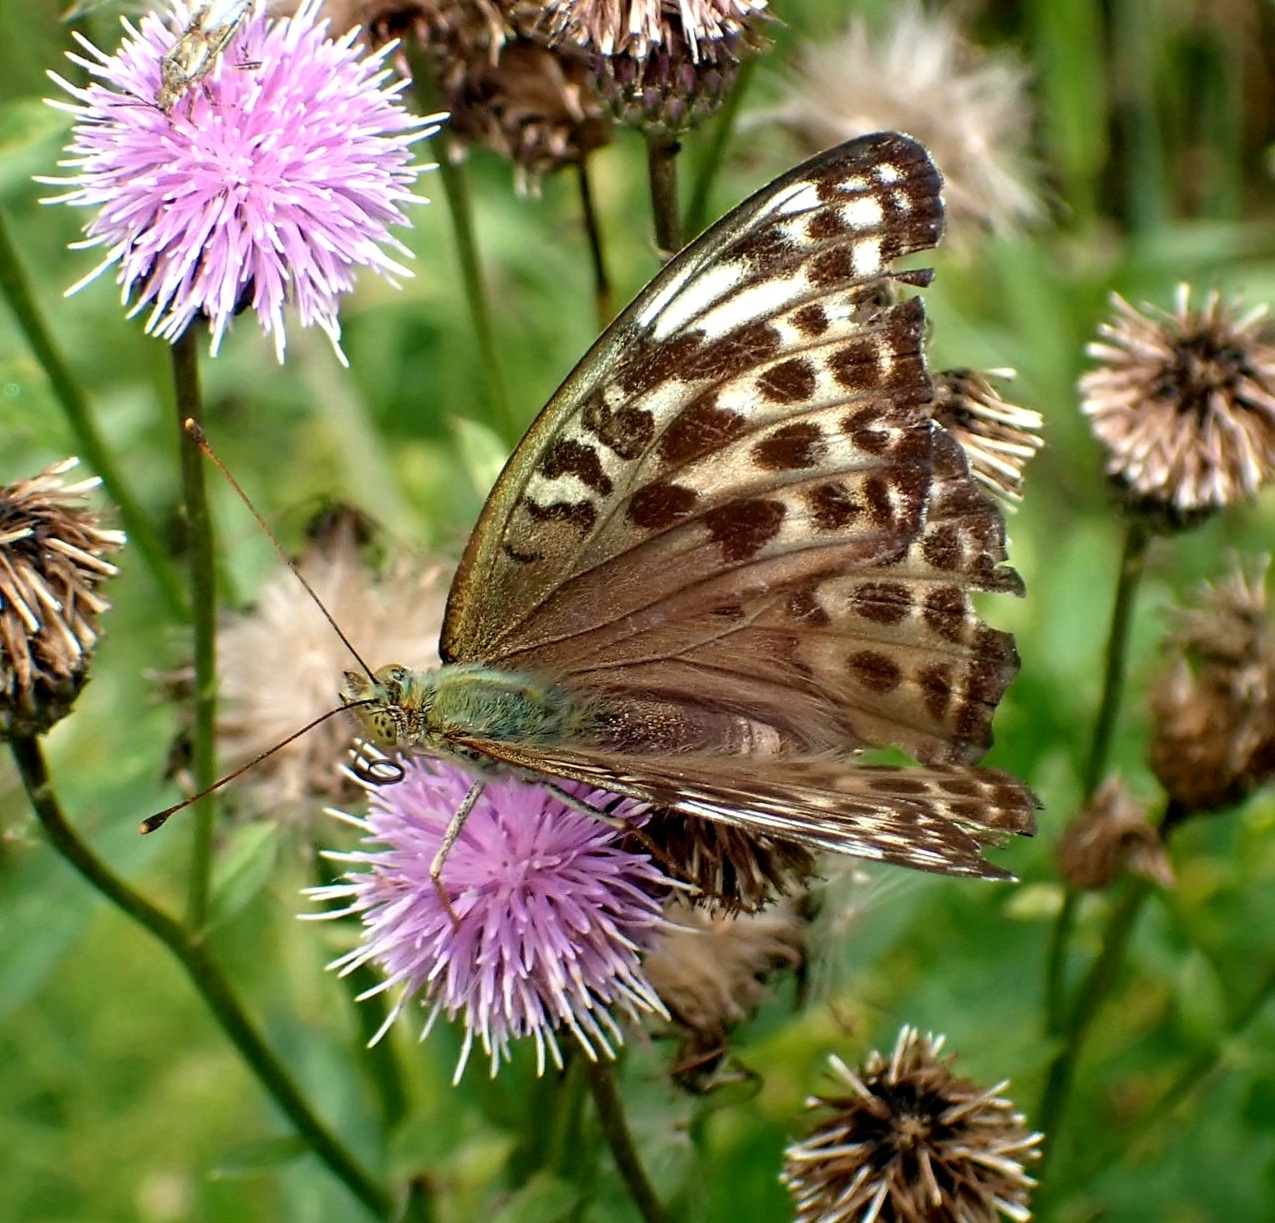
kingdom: Animalia
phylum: Arthropoda
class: Insecta
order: Lepidoptera
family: Nymphalidae
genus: Argynnis
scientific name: Argynnis paphia
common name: Silver-washed fritillary
